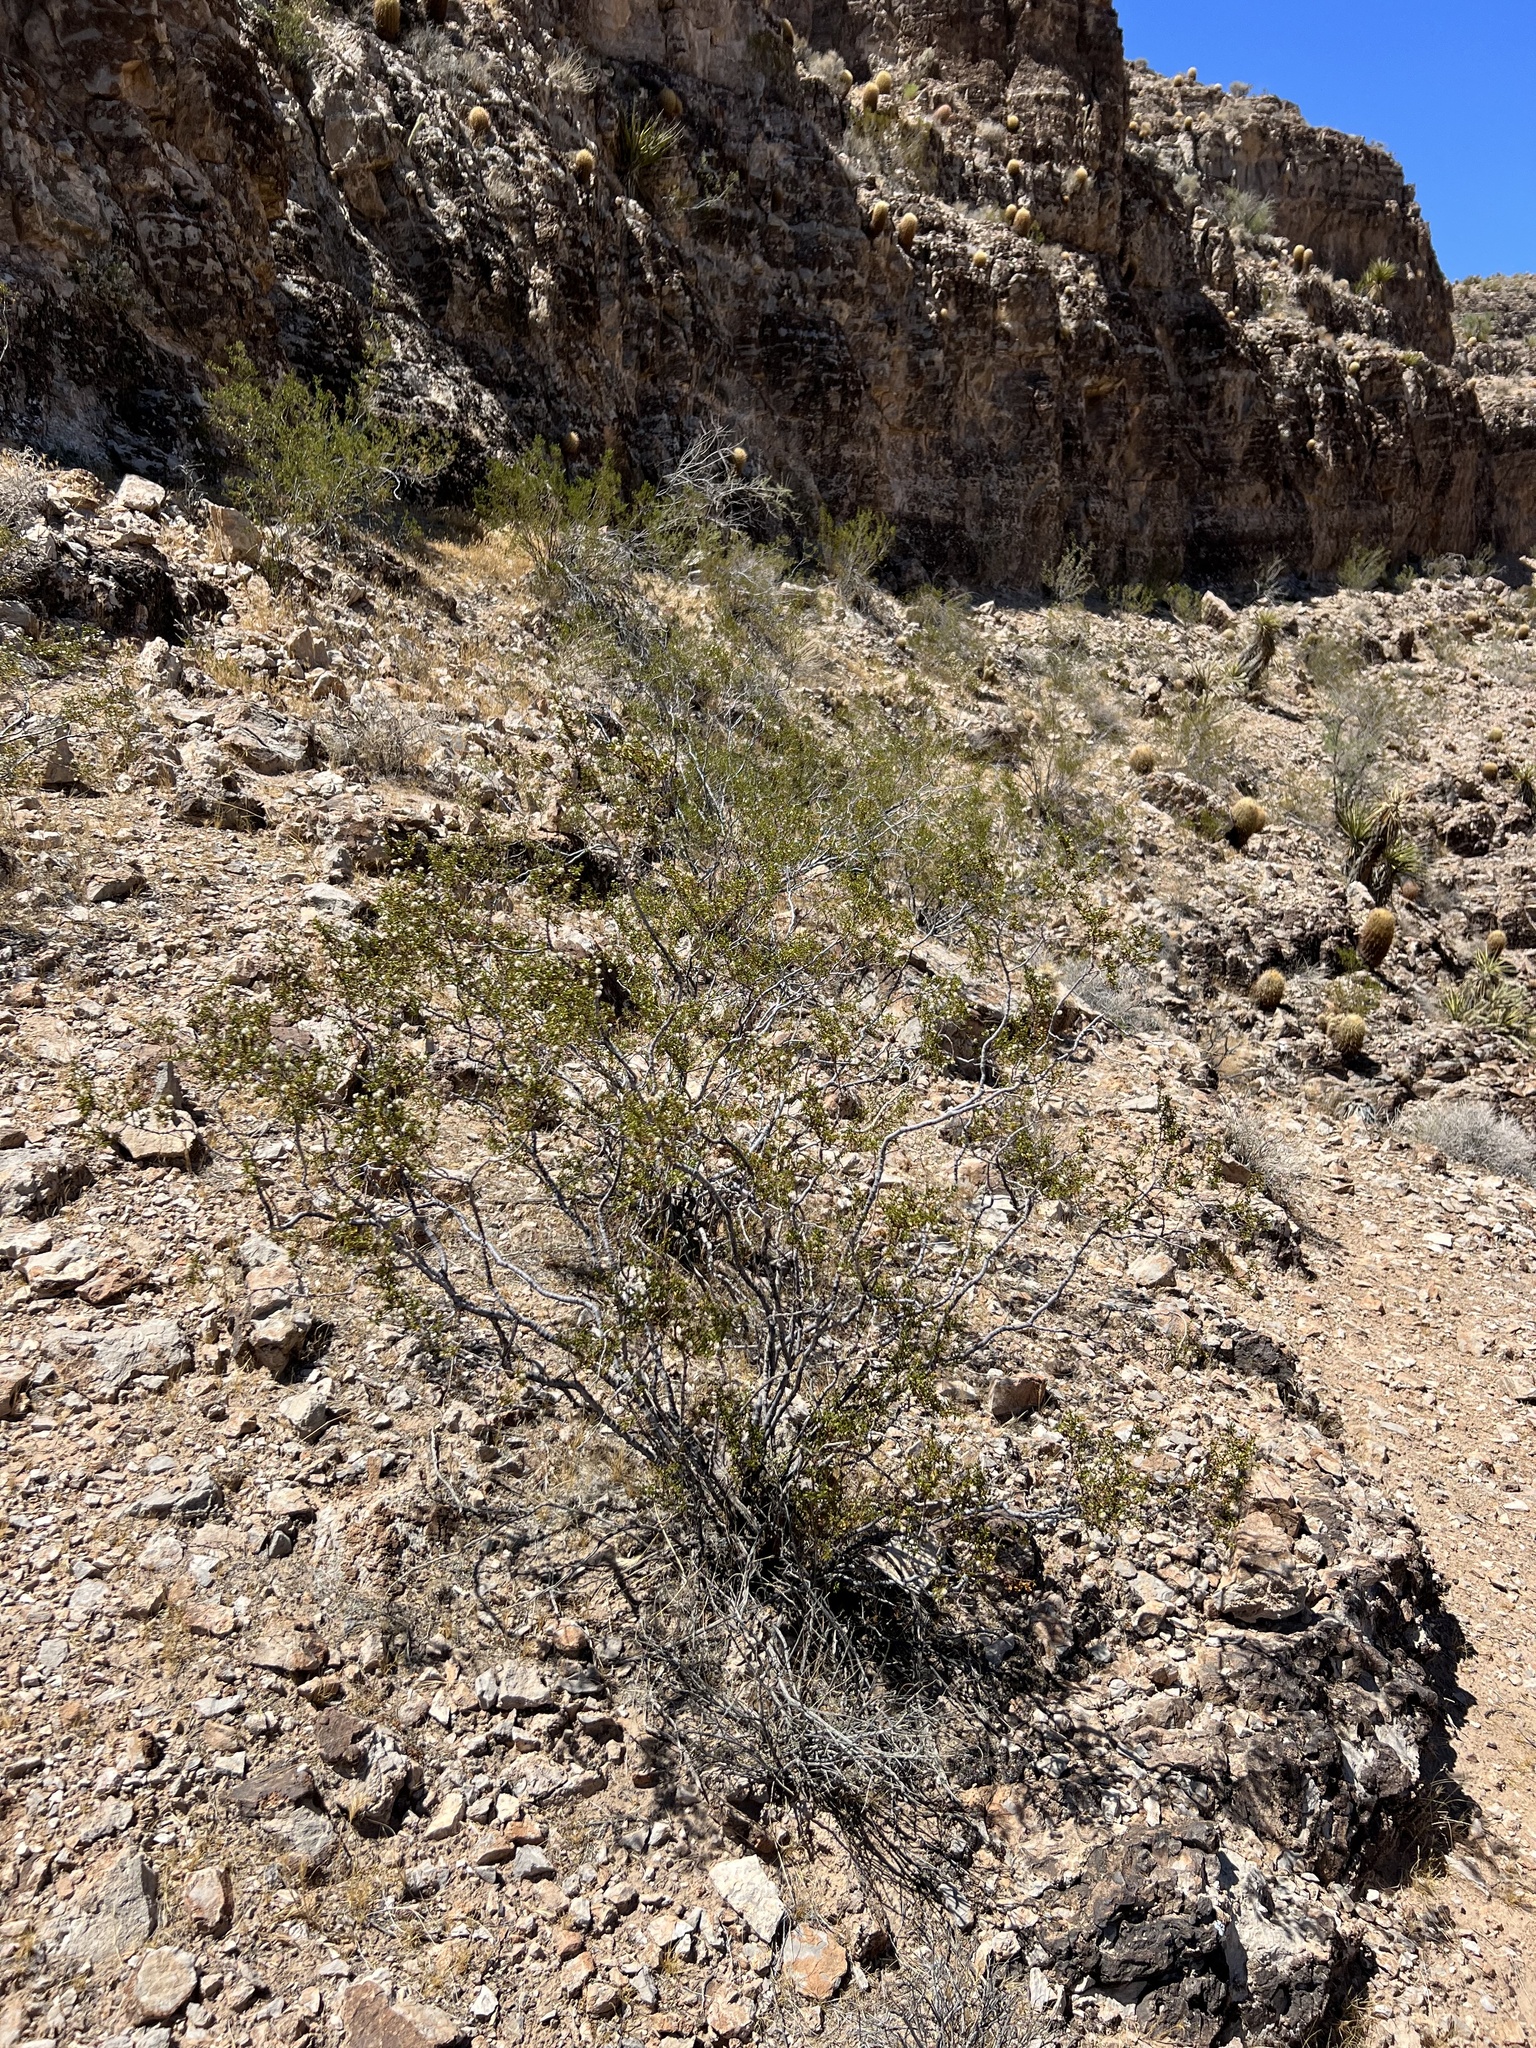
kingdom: Plantae
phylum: Tracheophyta
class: Magnoliopsida
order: Zygophyllales
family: Zygophyllaceae
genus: Larrea
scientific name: Larrea tridentata
